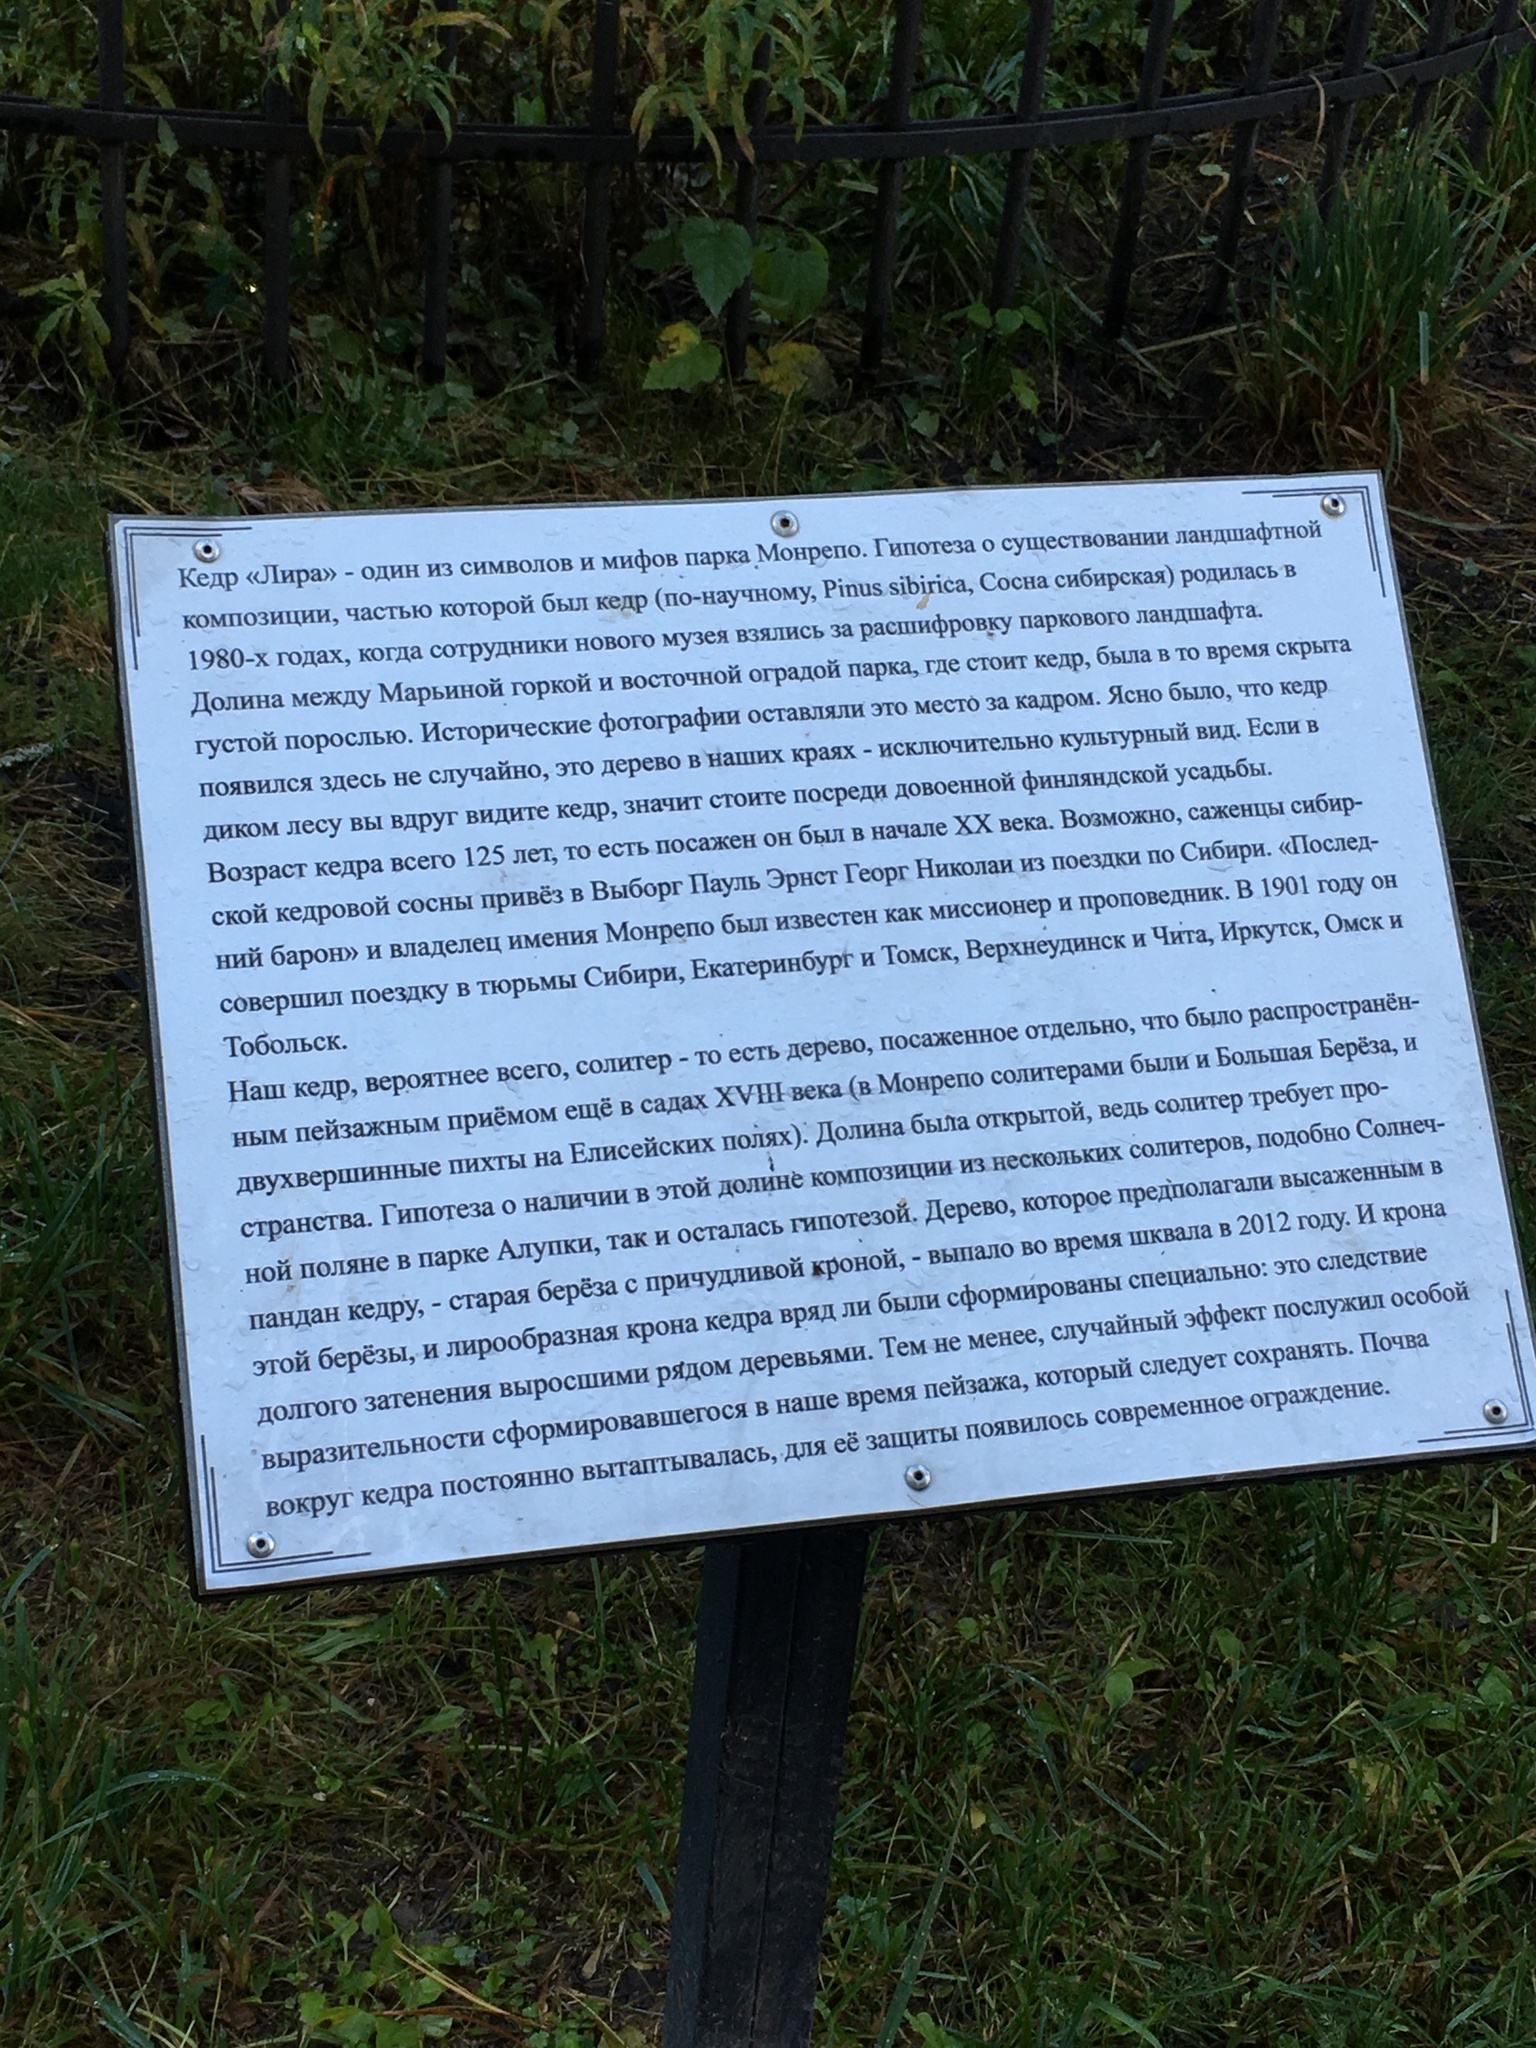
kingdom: Plantae
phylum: Tracheophyta
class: Pinopsida
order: Pinales
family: Pinaceae
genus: Pinus
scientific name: Pinus sibirica
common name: Siberian pine
